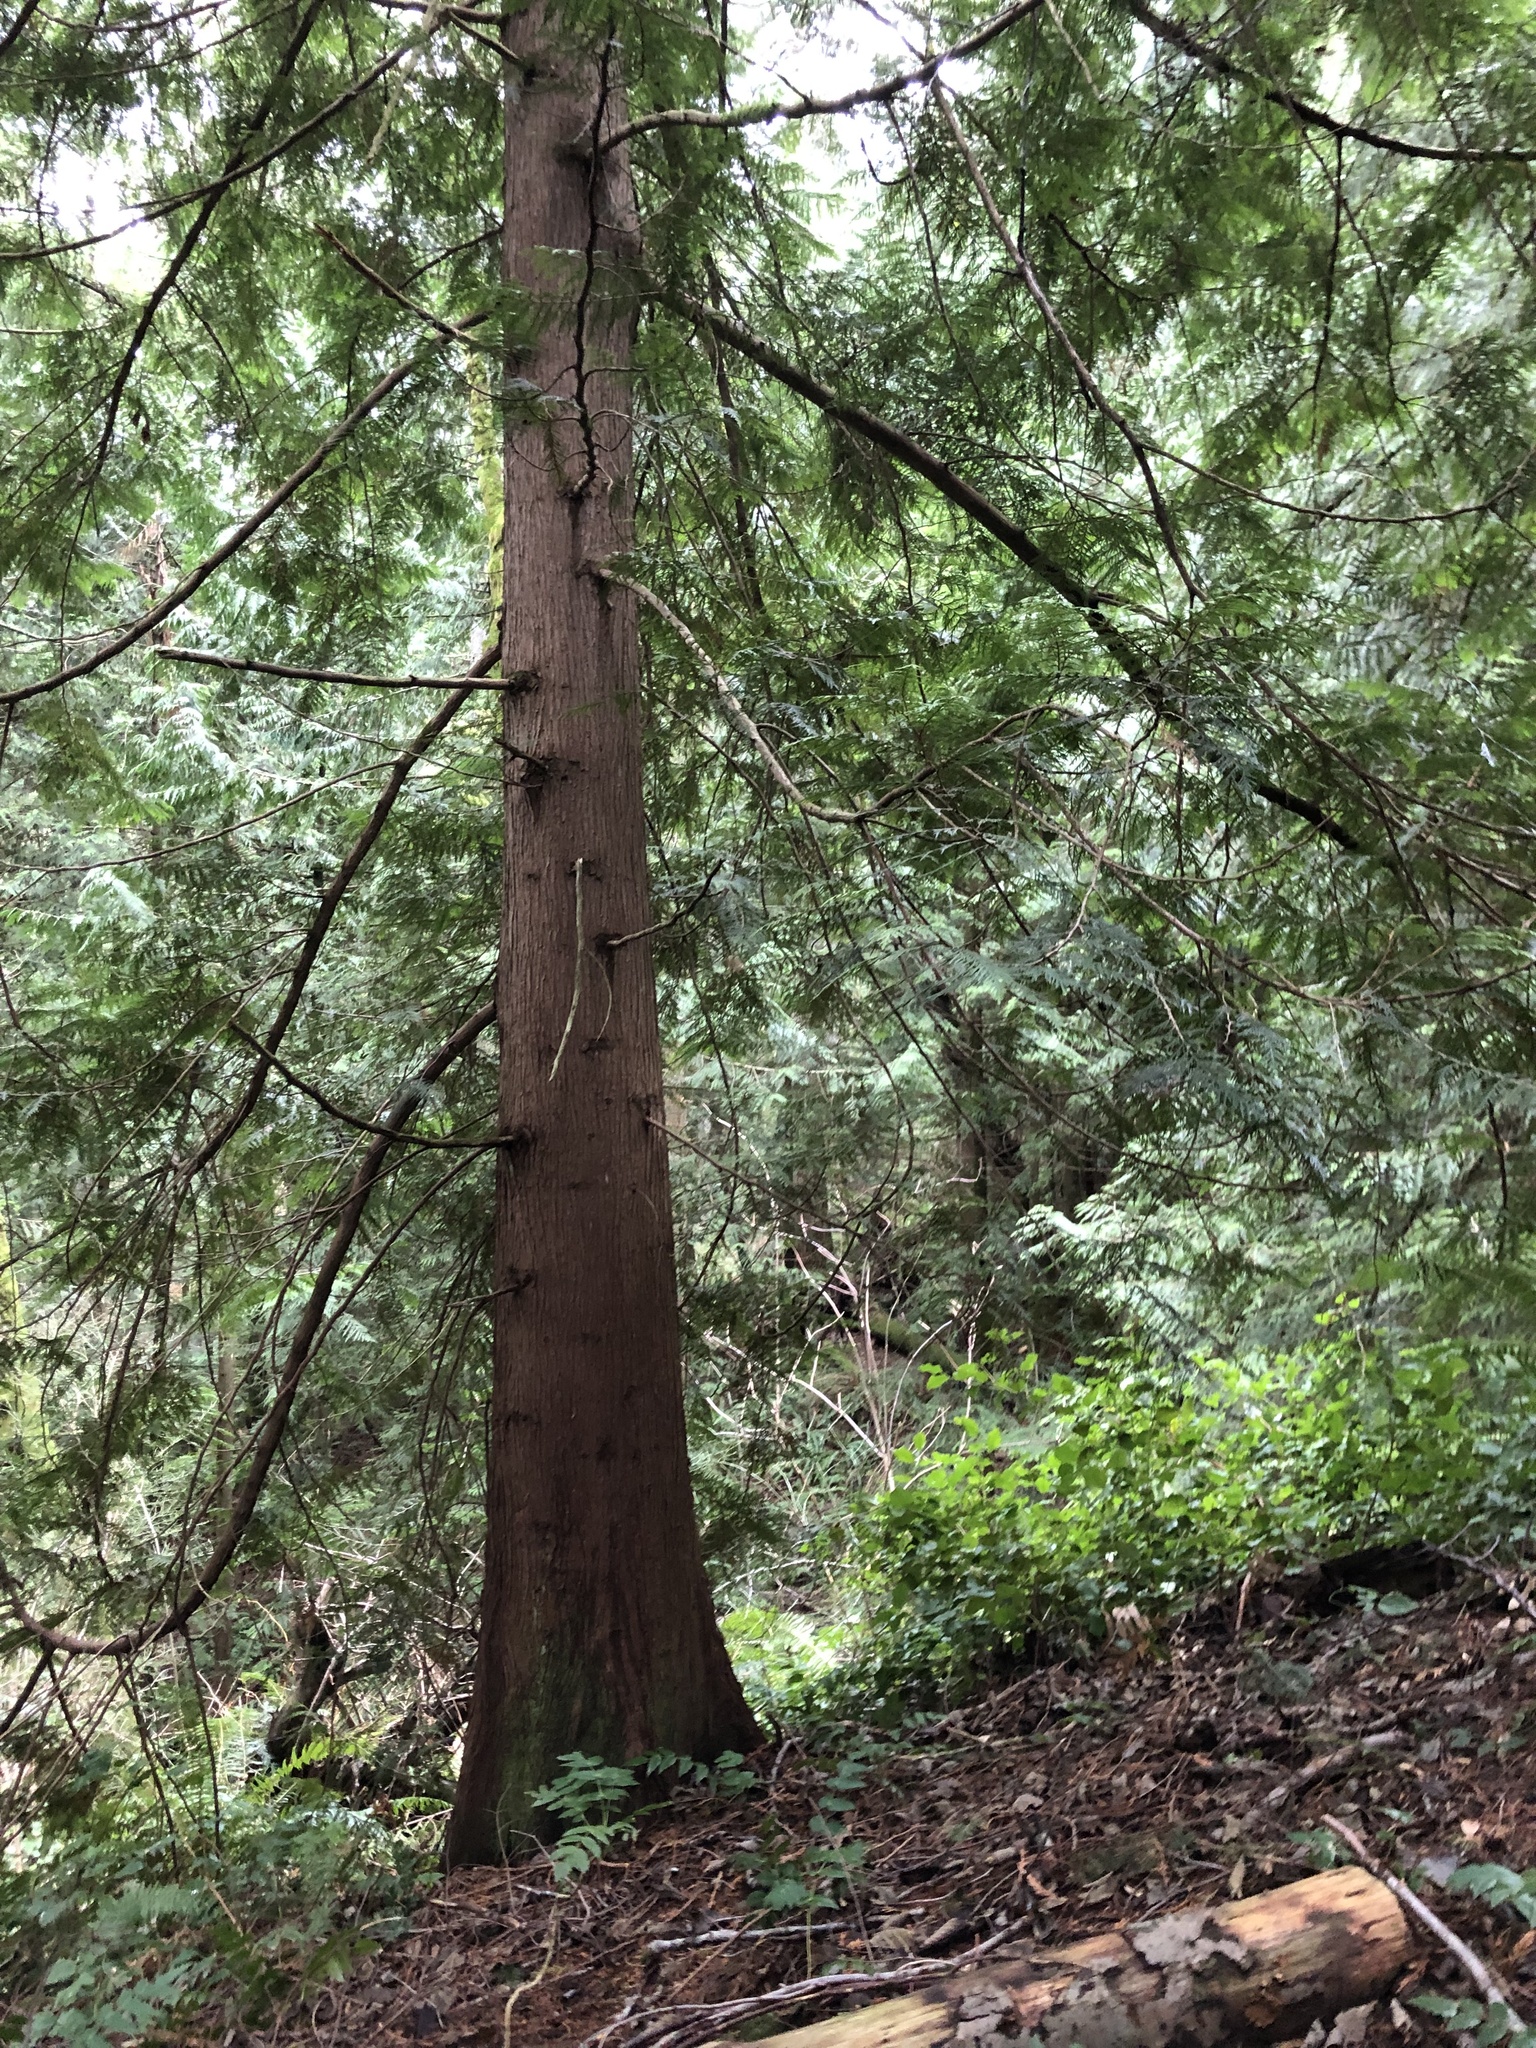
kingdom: Plantae
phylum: Tracheophyta
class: Pinopsida
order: Pinales
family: Cupressaceae
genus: Thuja
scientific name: Thuja plicata
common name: Western red-cedar
